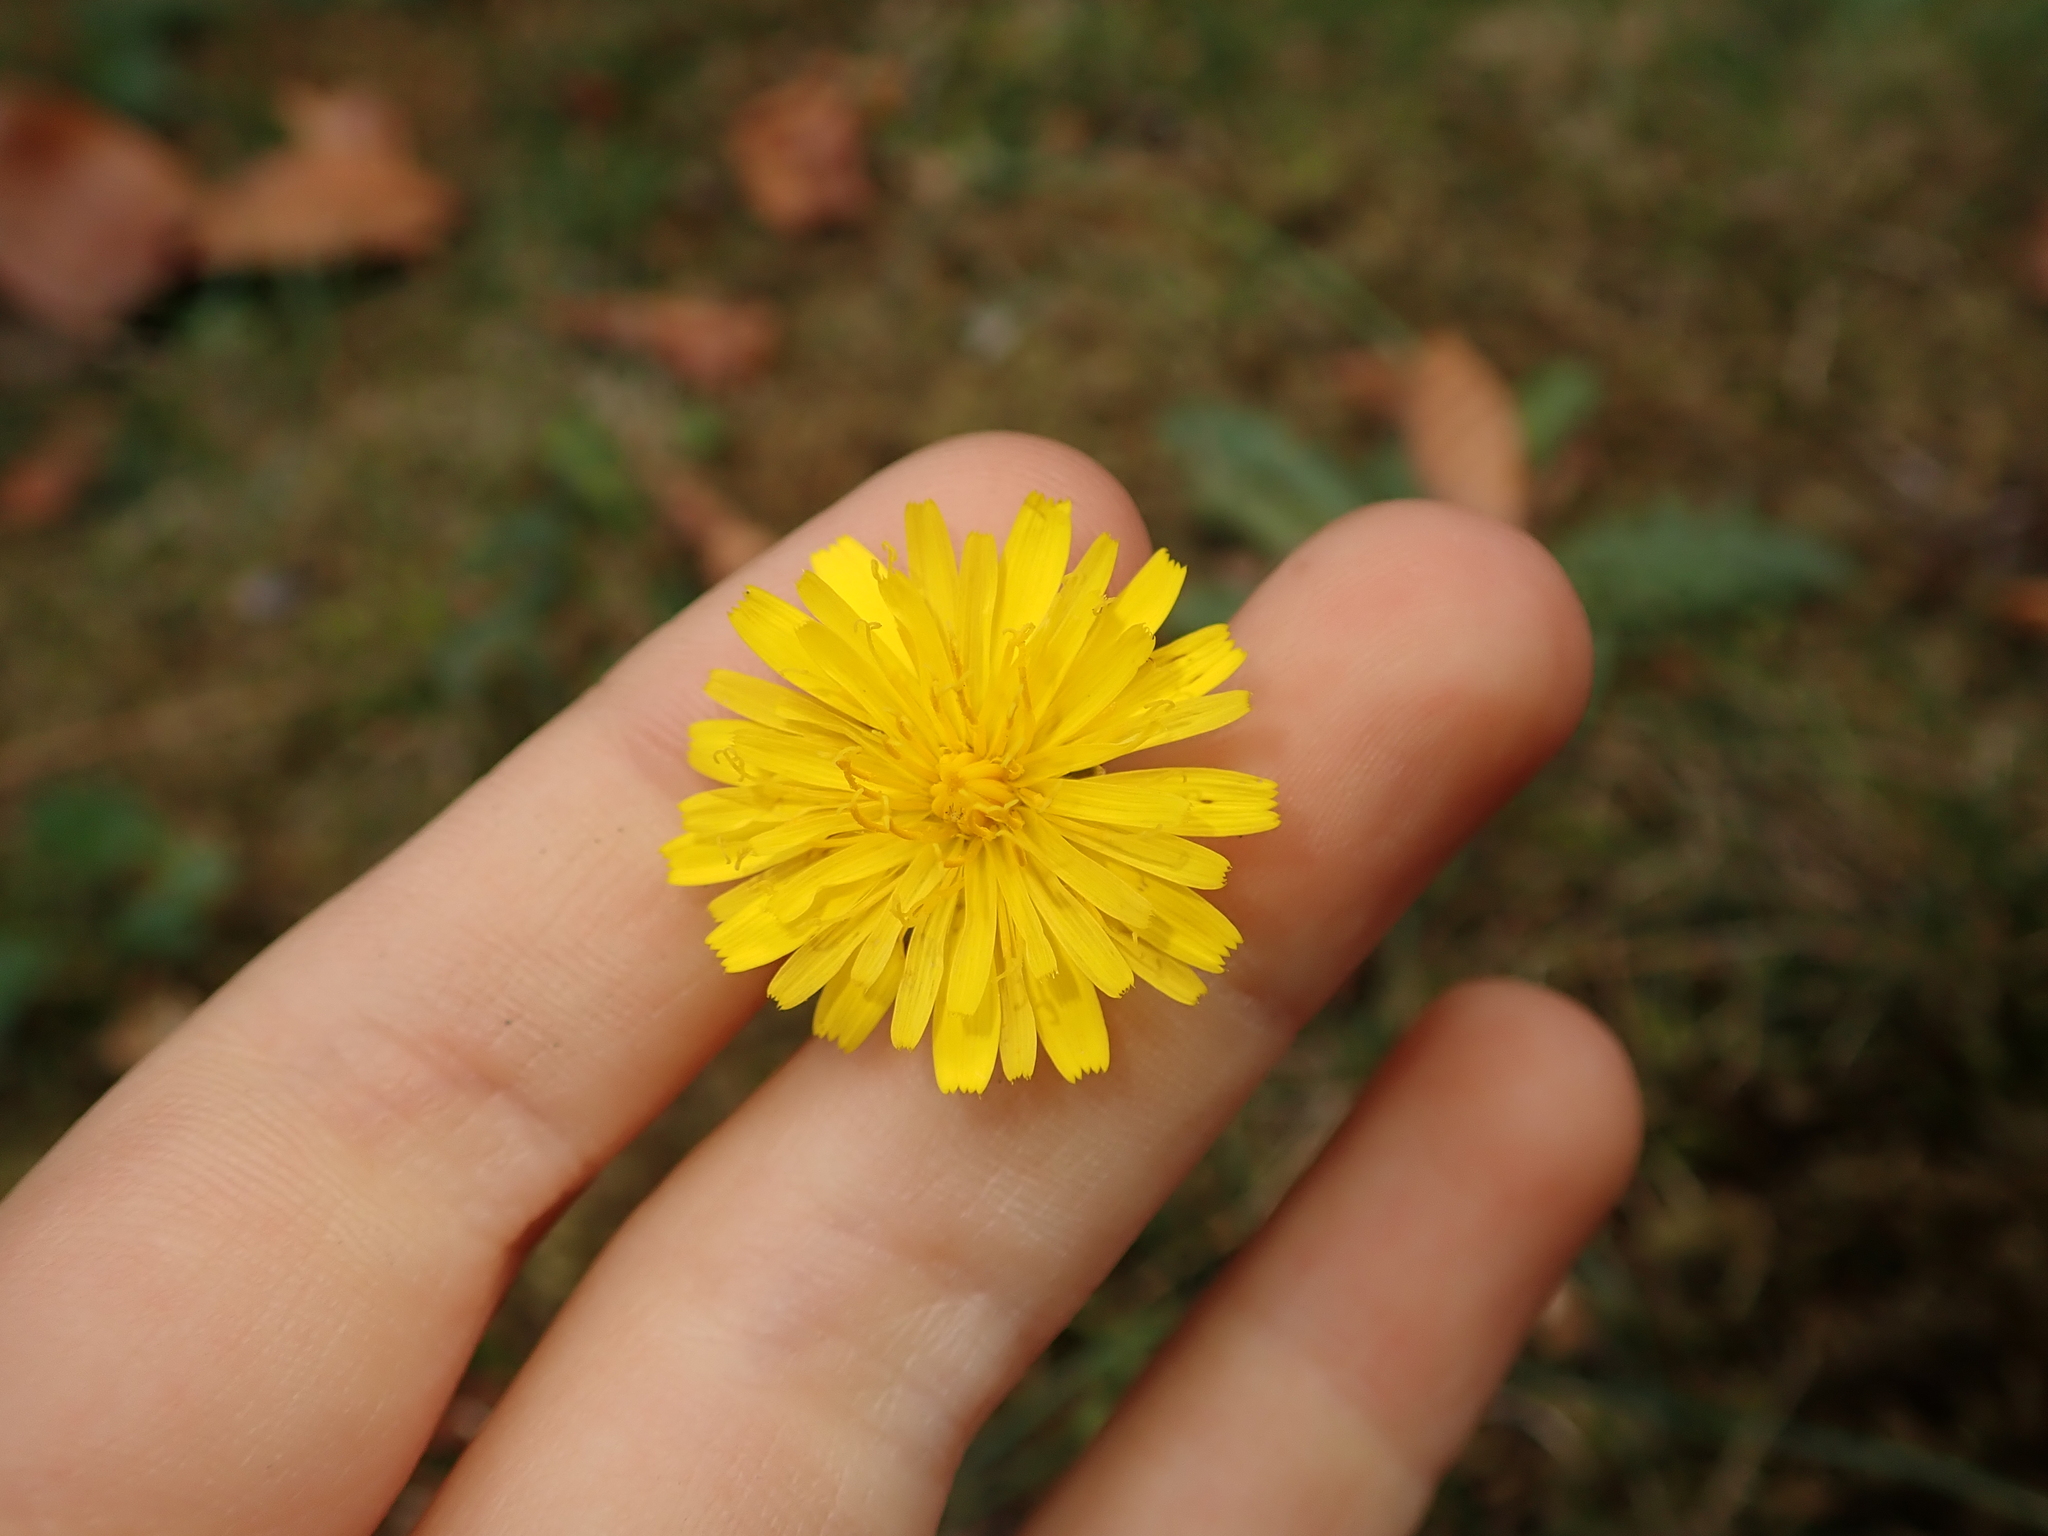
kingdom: Plantae
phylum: Tracheophyta
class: Magnoliopsida
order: Asterales
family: Asteraceae
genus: Hypochaeris
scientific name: Hypochaeris radicata
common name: Flatweed
